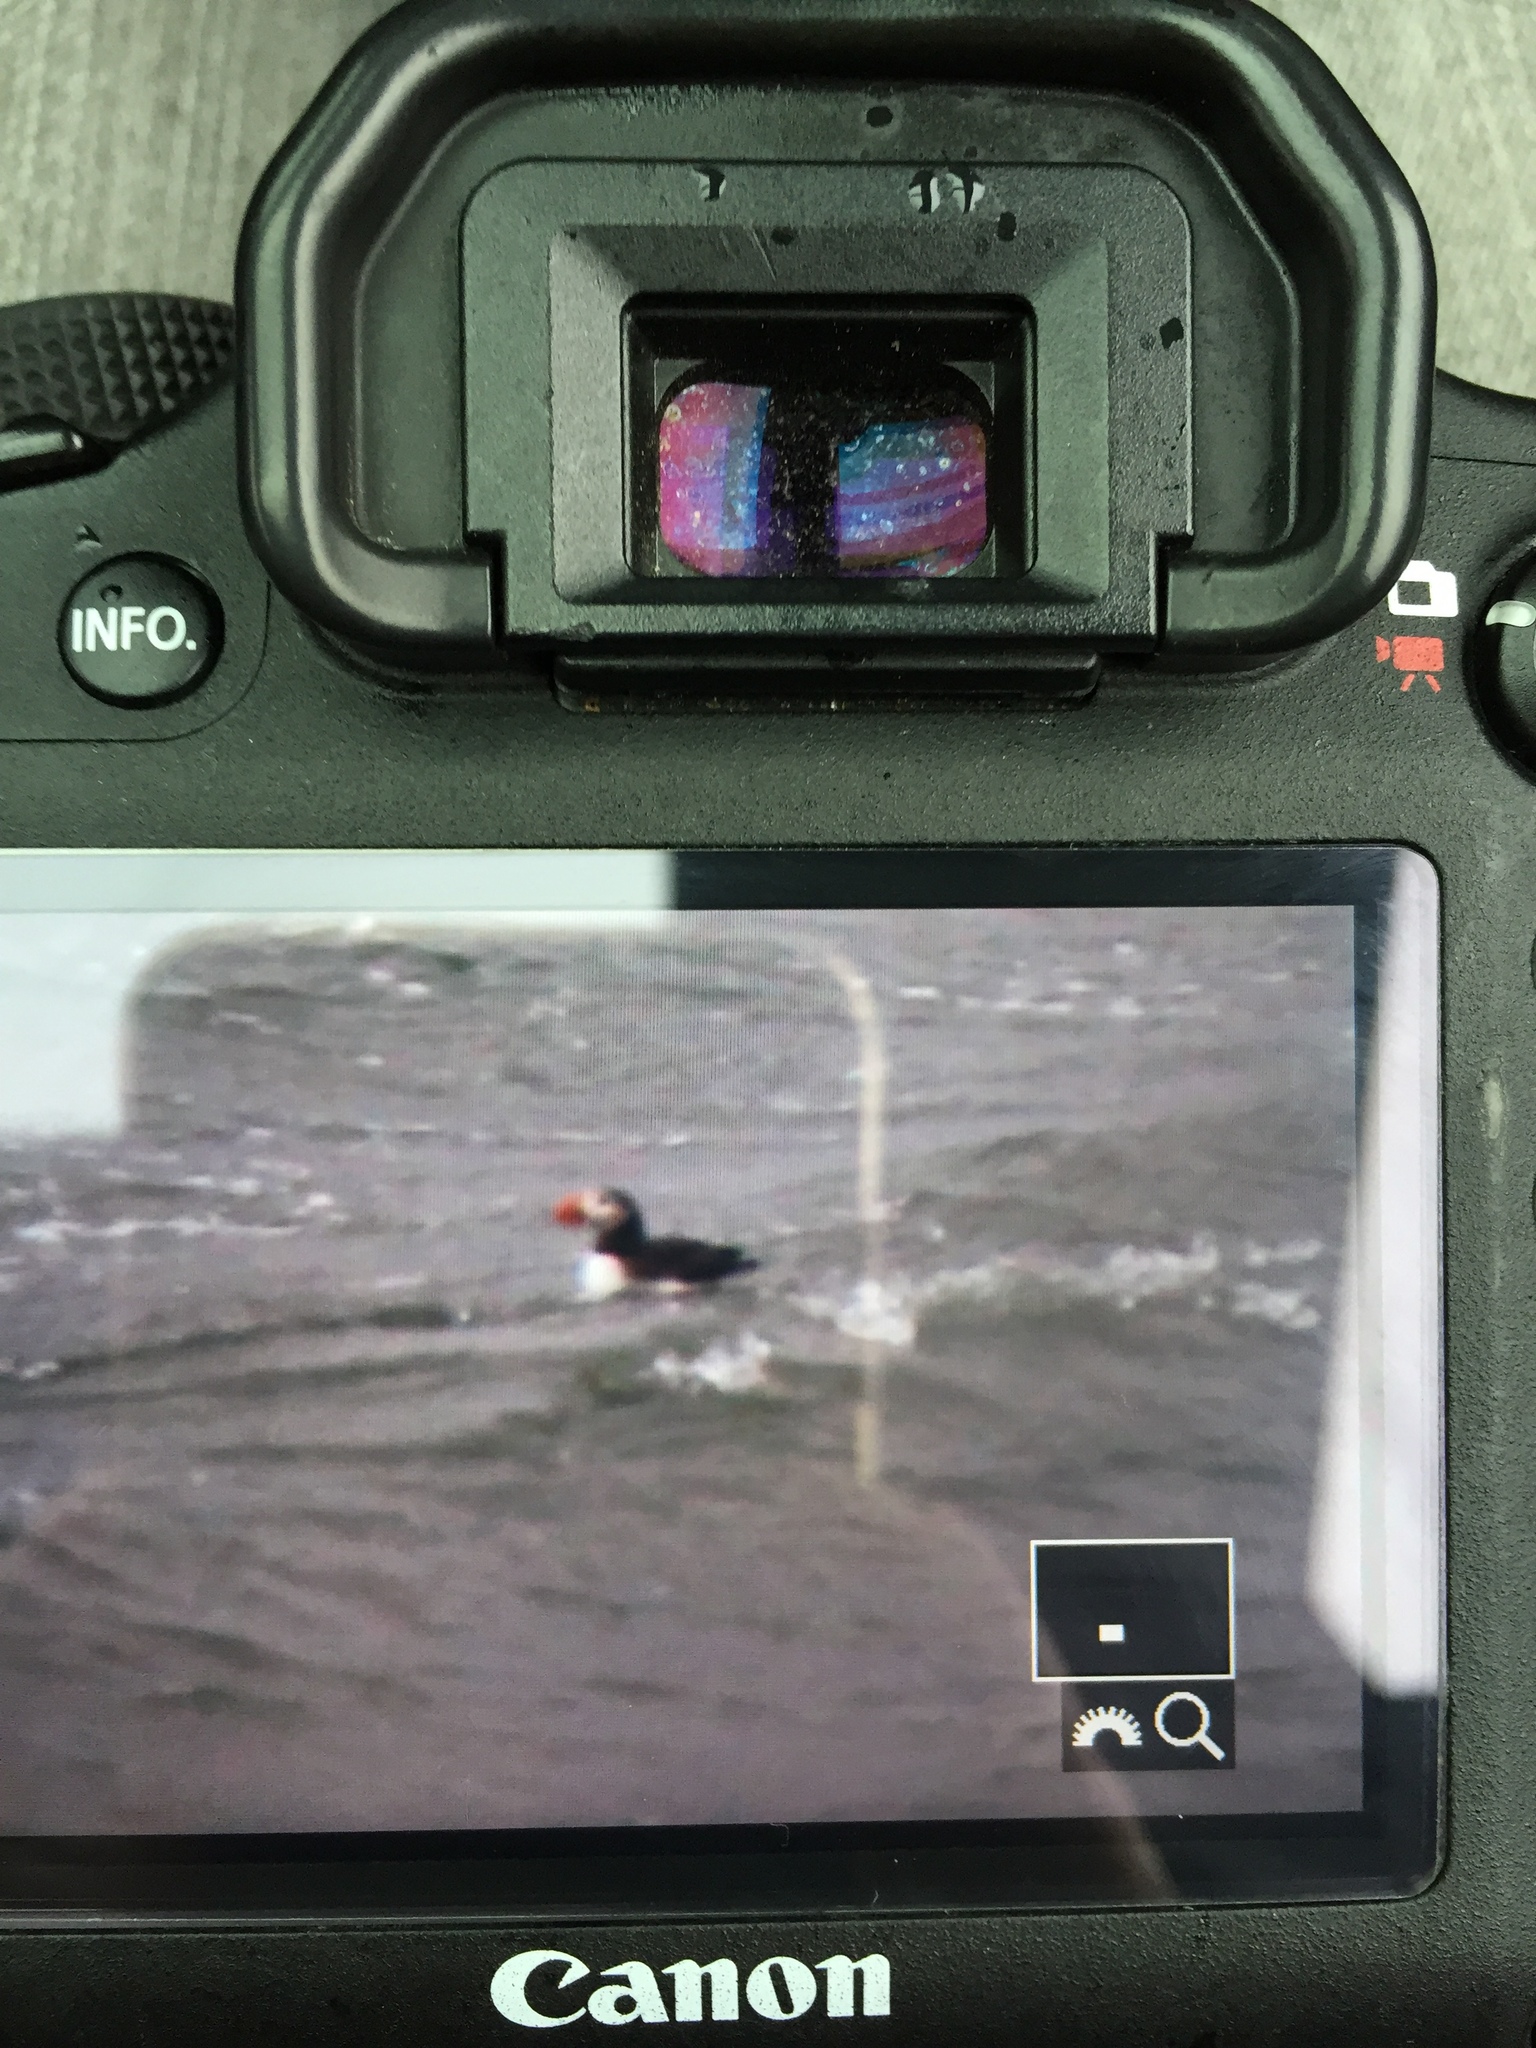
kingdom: Animalia
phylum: Chordata
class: Aves
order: Charadriiformes
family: Alcidae
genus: Fratercula
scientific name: Fratercula arctica
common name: Atlantic puffin
